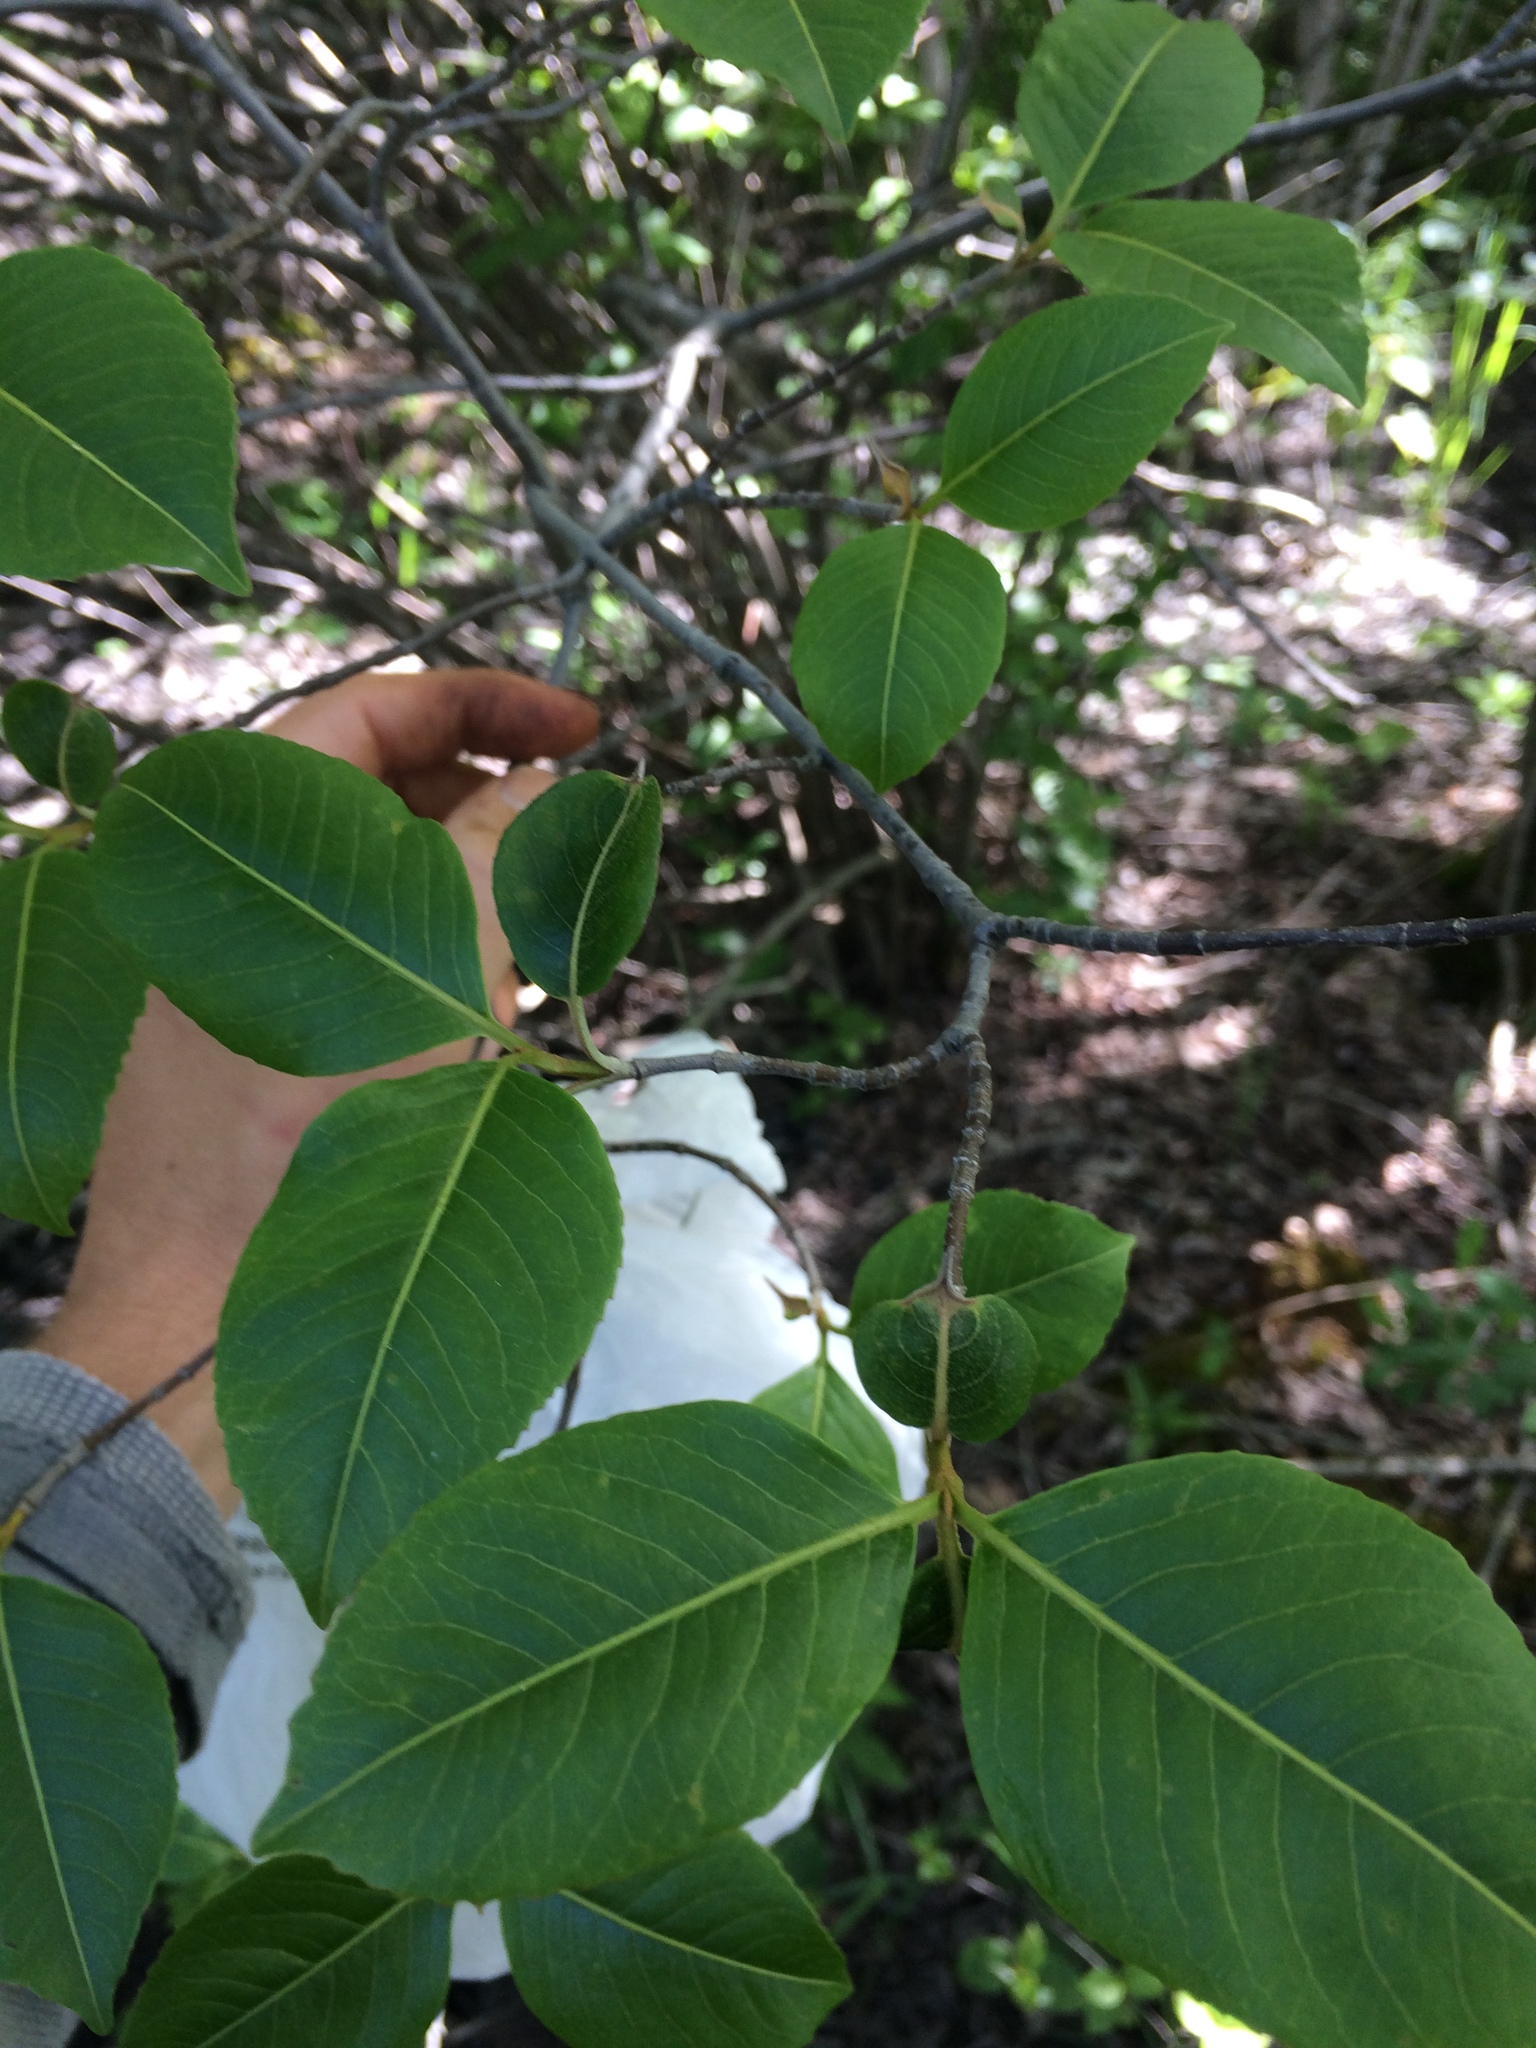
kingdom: Plantae
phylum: Tracheophyta
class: Magnoliopsida
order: Dipsacales
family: Viburnaceae
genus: Viburnum
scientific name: Viburnum cassinoides
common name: Swamp haw
